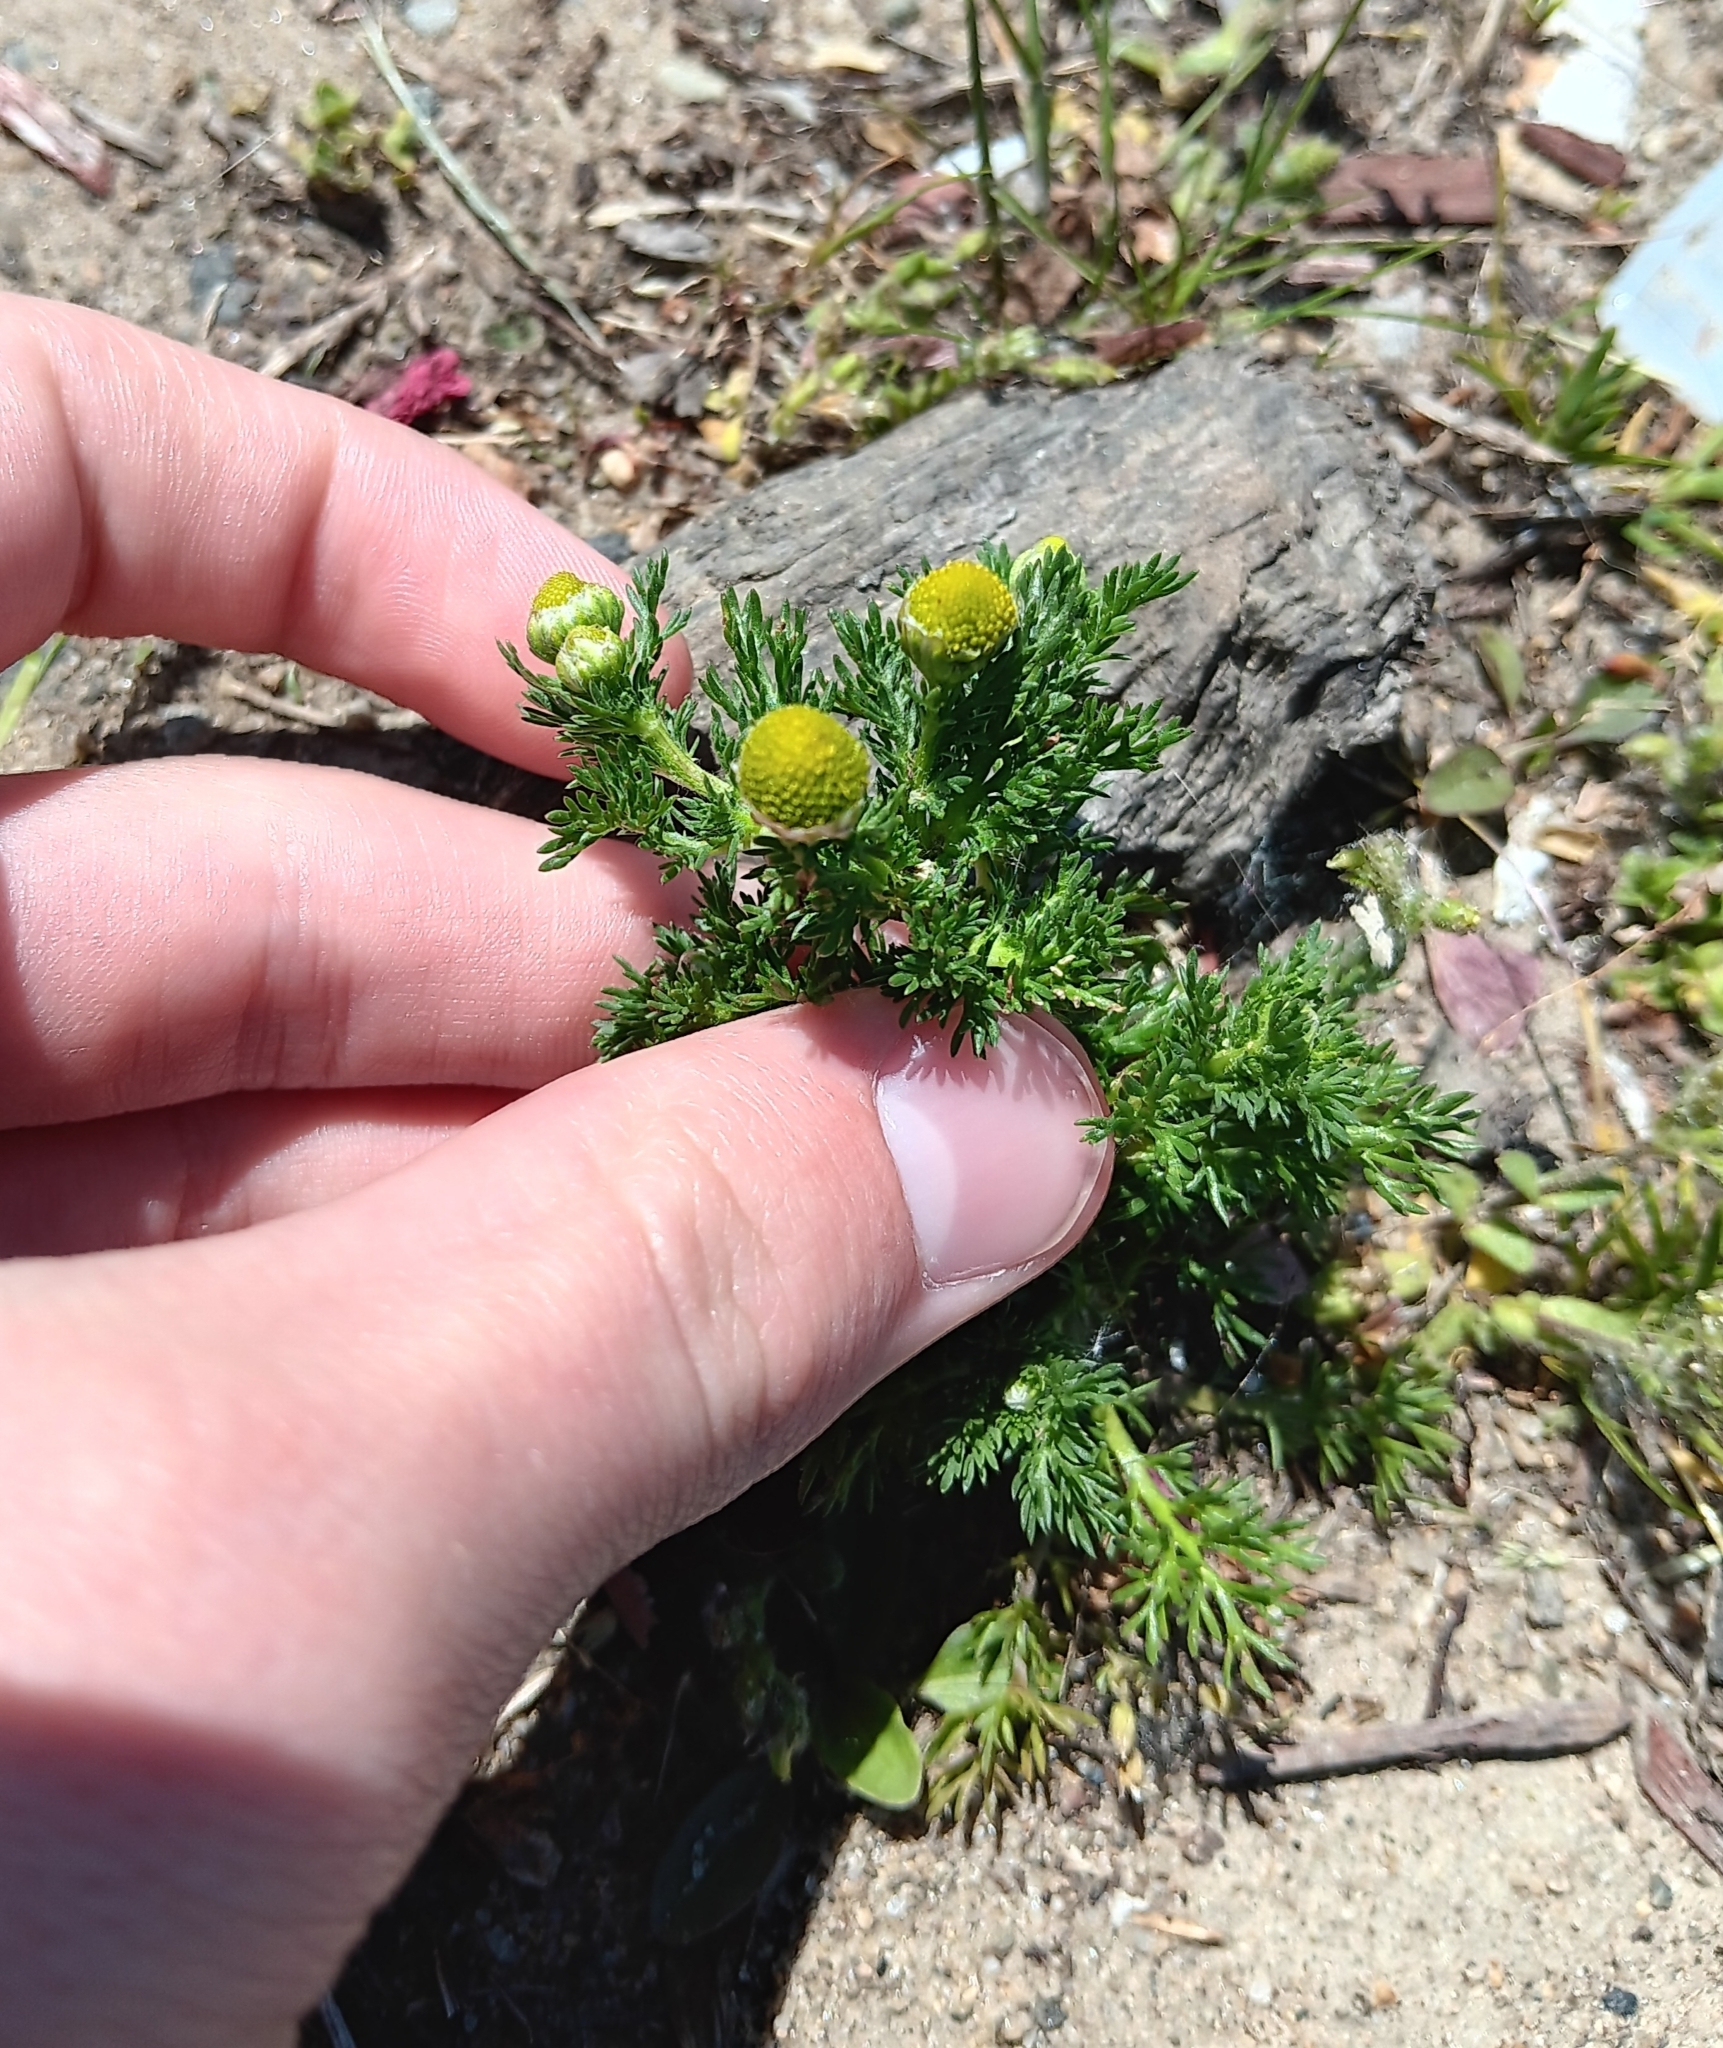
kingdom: Plantae
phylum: Tracheophyta
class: Magnoliopsida
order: Asterales
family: Asteraceae
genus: Matricaria
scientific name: Matricaria discoidea
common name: Disc mayweed
